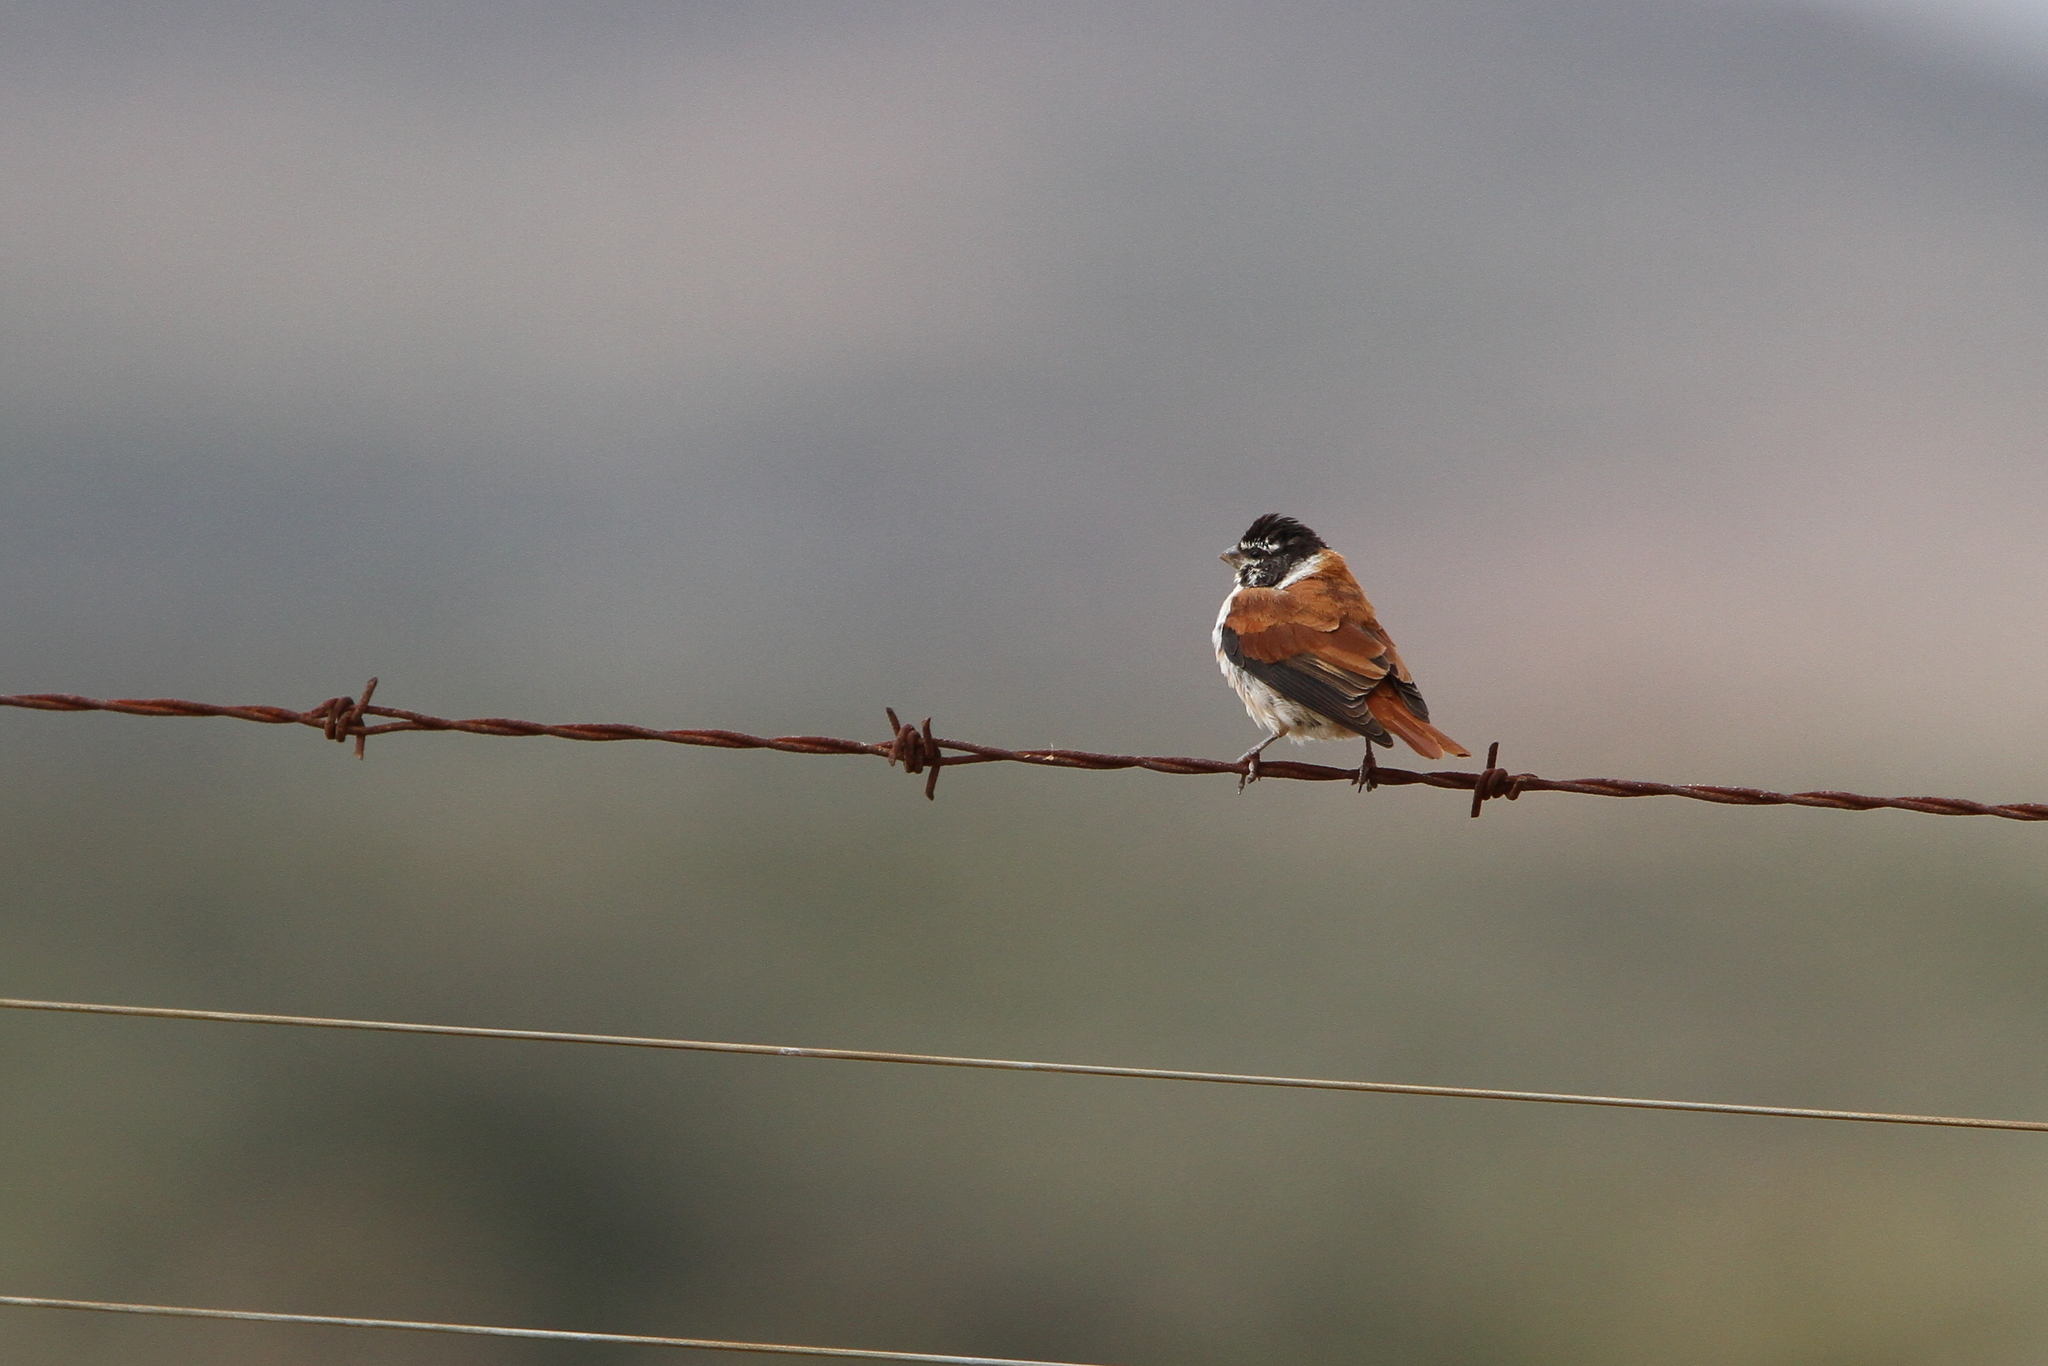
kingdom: Animalia
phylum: Chordata
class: Aves
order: Passeriformes
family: Fringillidae
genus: Serinus
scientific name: Serinus alario
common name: Black-headed canary
